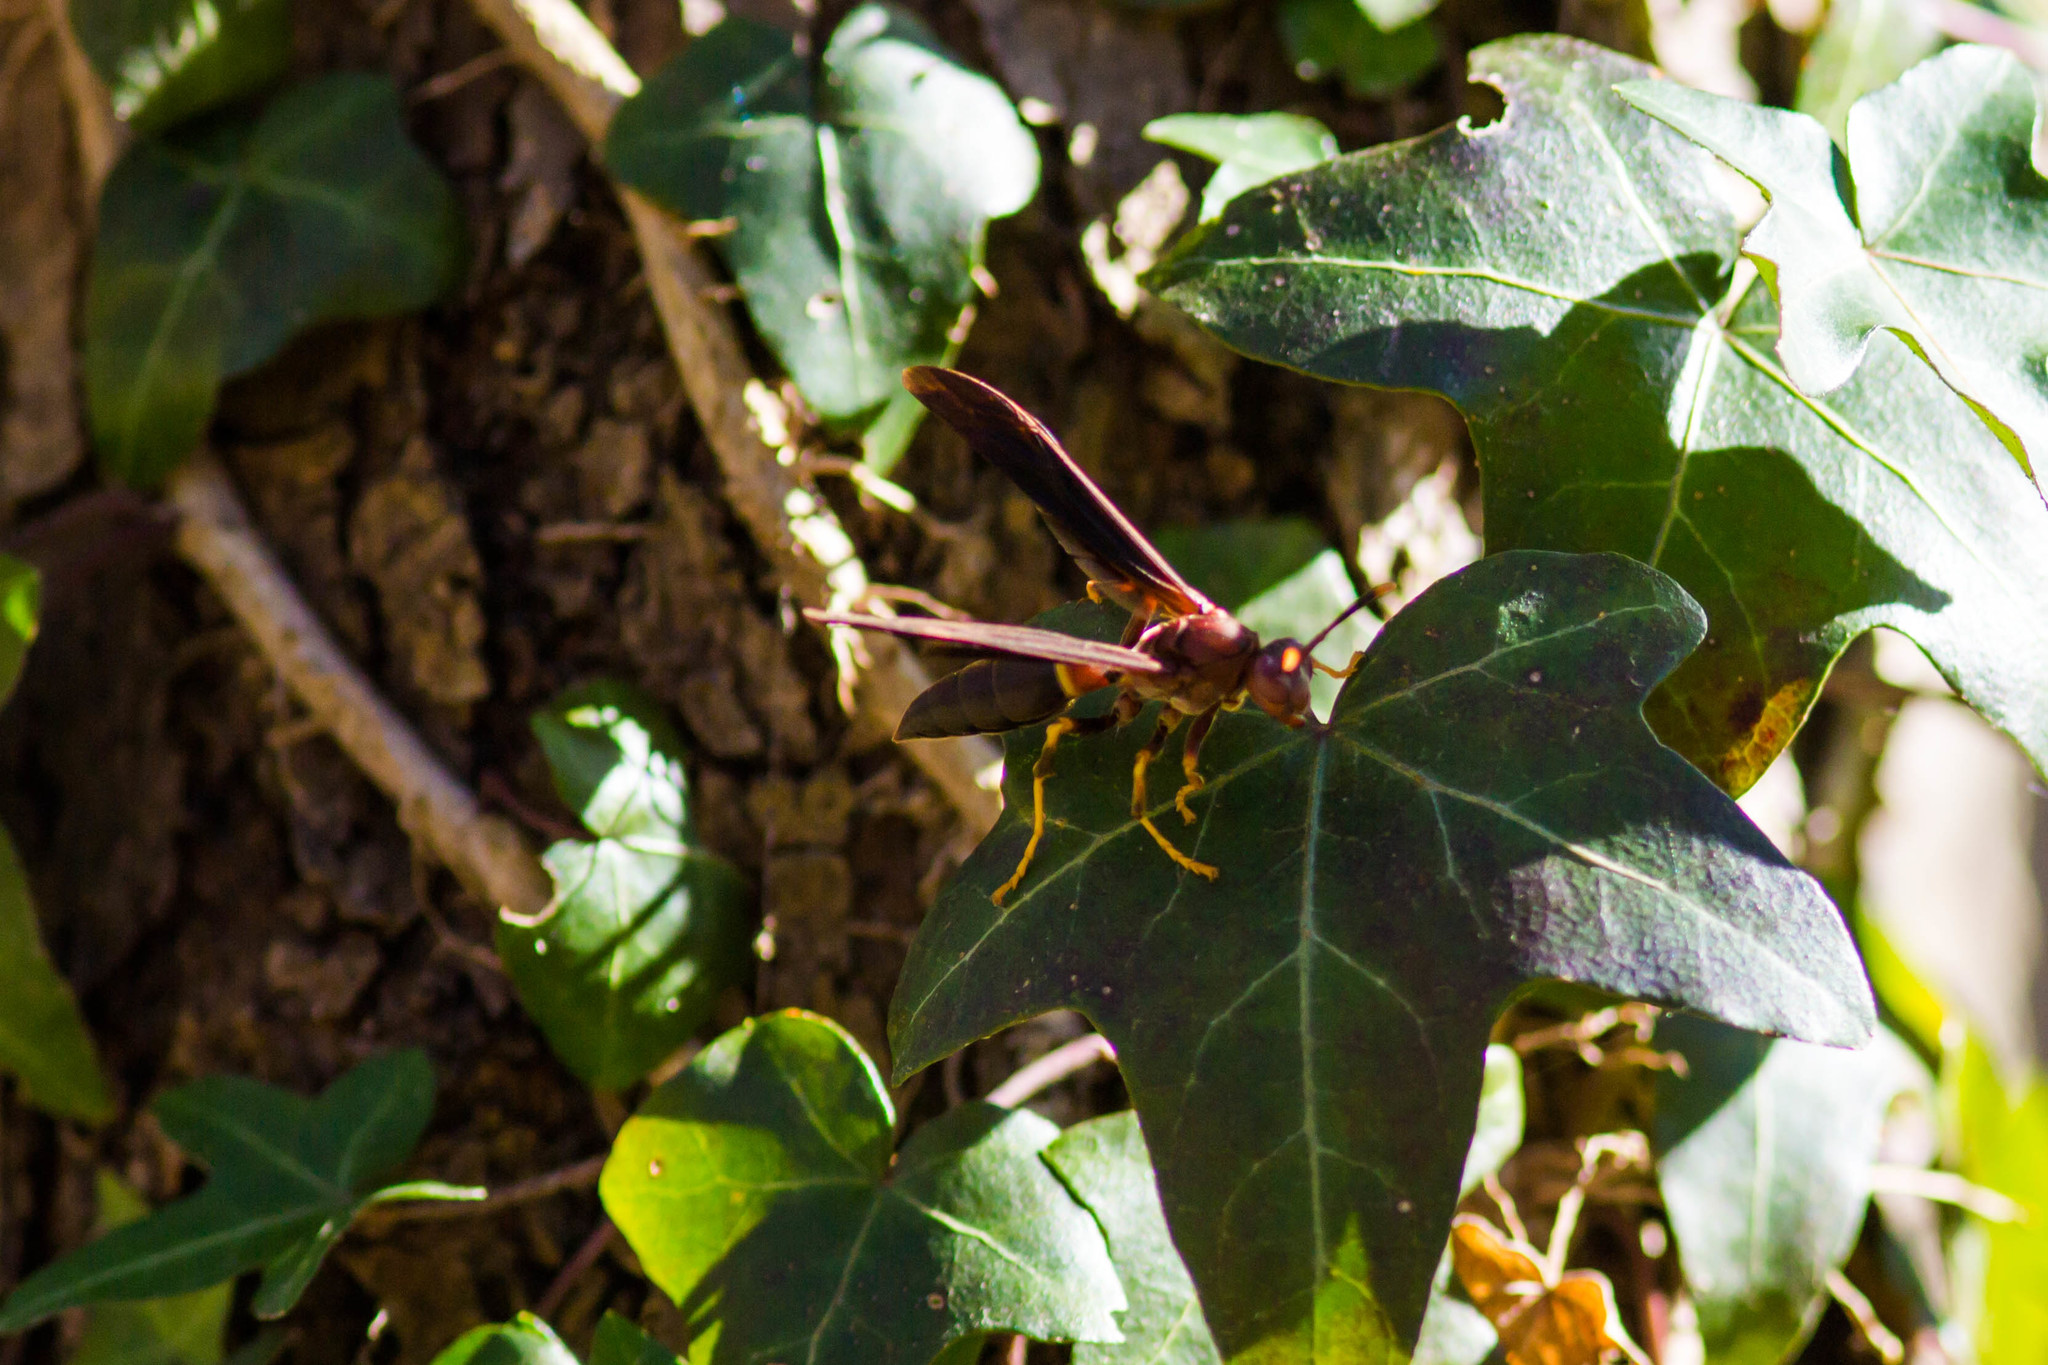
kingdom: Animalia
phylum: Arthropoda
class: Insecta
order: Hymenoptera
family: Eumenidae
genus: Polistes
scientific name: Polistes annularis
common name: Ringed paper wasp
